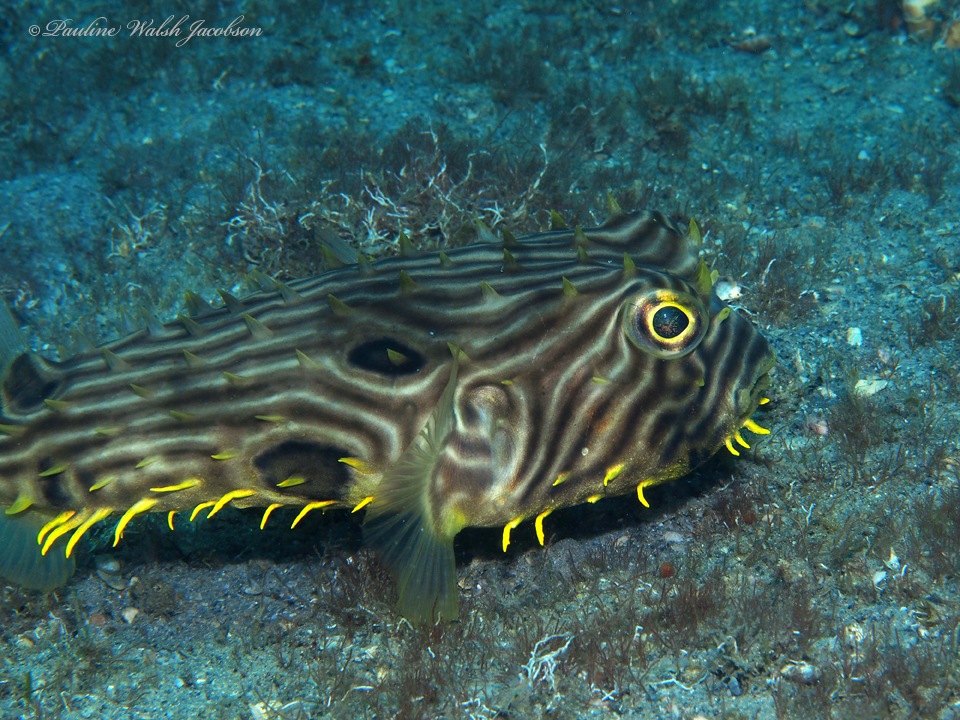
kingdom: Animalia
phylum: Chordata
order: Tetraodontiformes
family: Diodontidae
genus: Chilomycterus
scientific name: Chilomycterus schoepfii
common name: Striped burrfish
